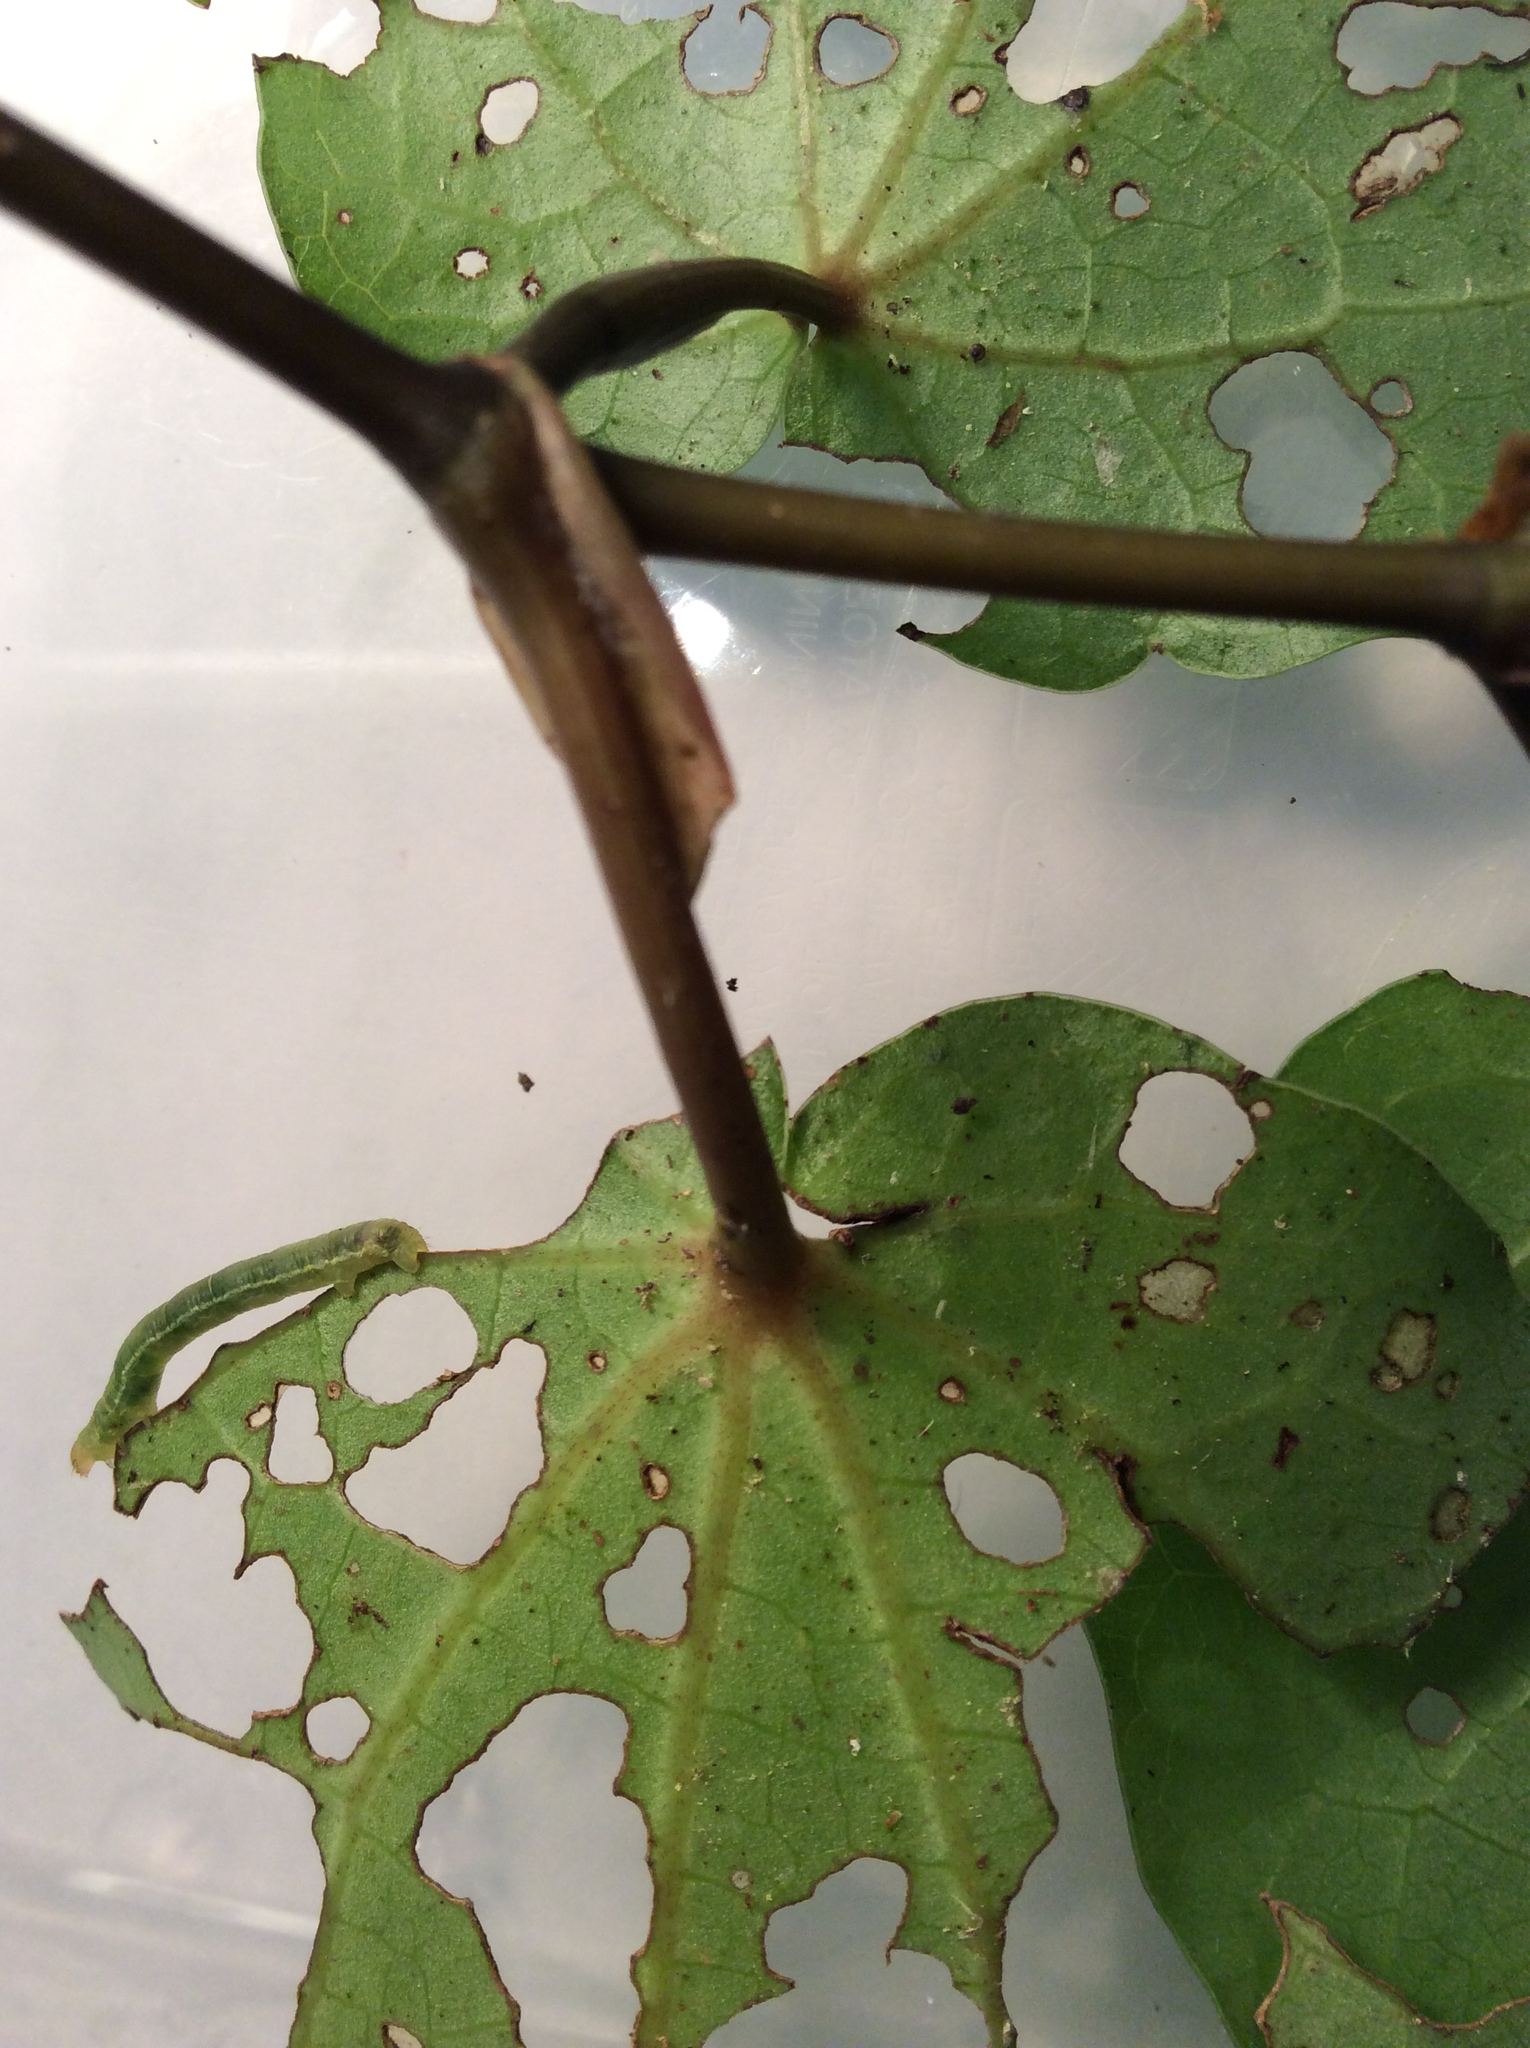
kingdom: Animalia
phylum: Arthropoda
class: Insecta
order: Lepidoptera
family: Geometridae
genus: Cleora
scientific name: Cleora scriptaria
